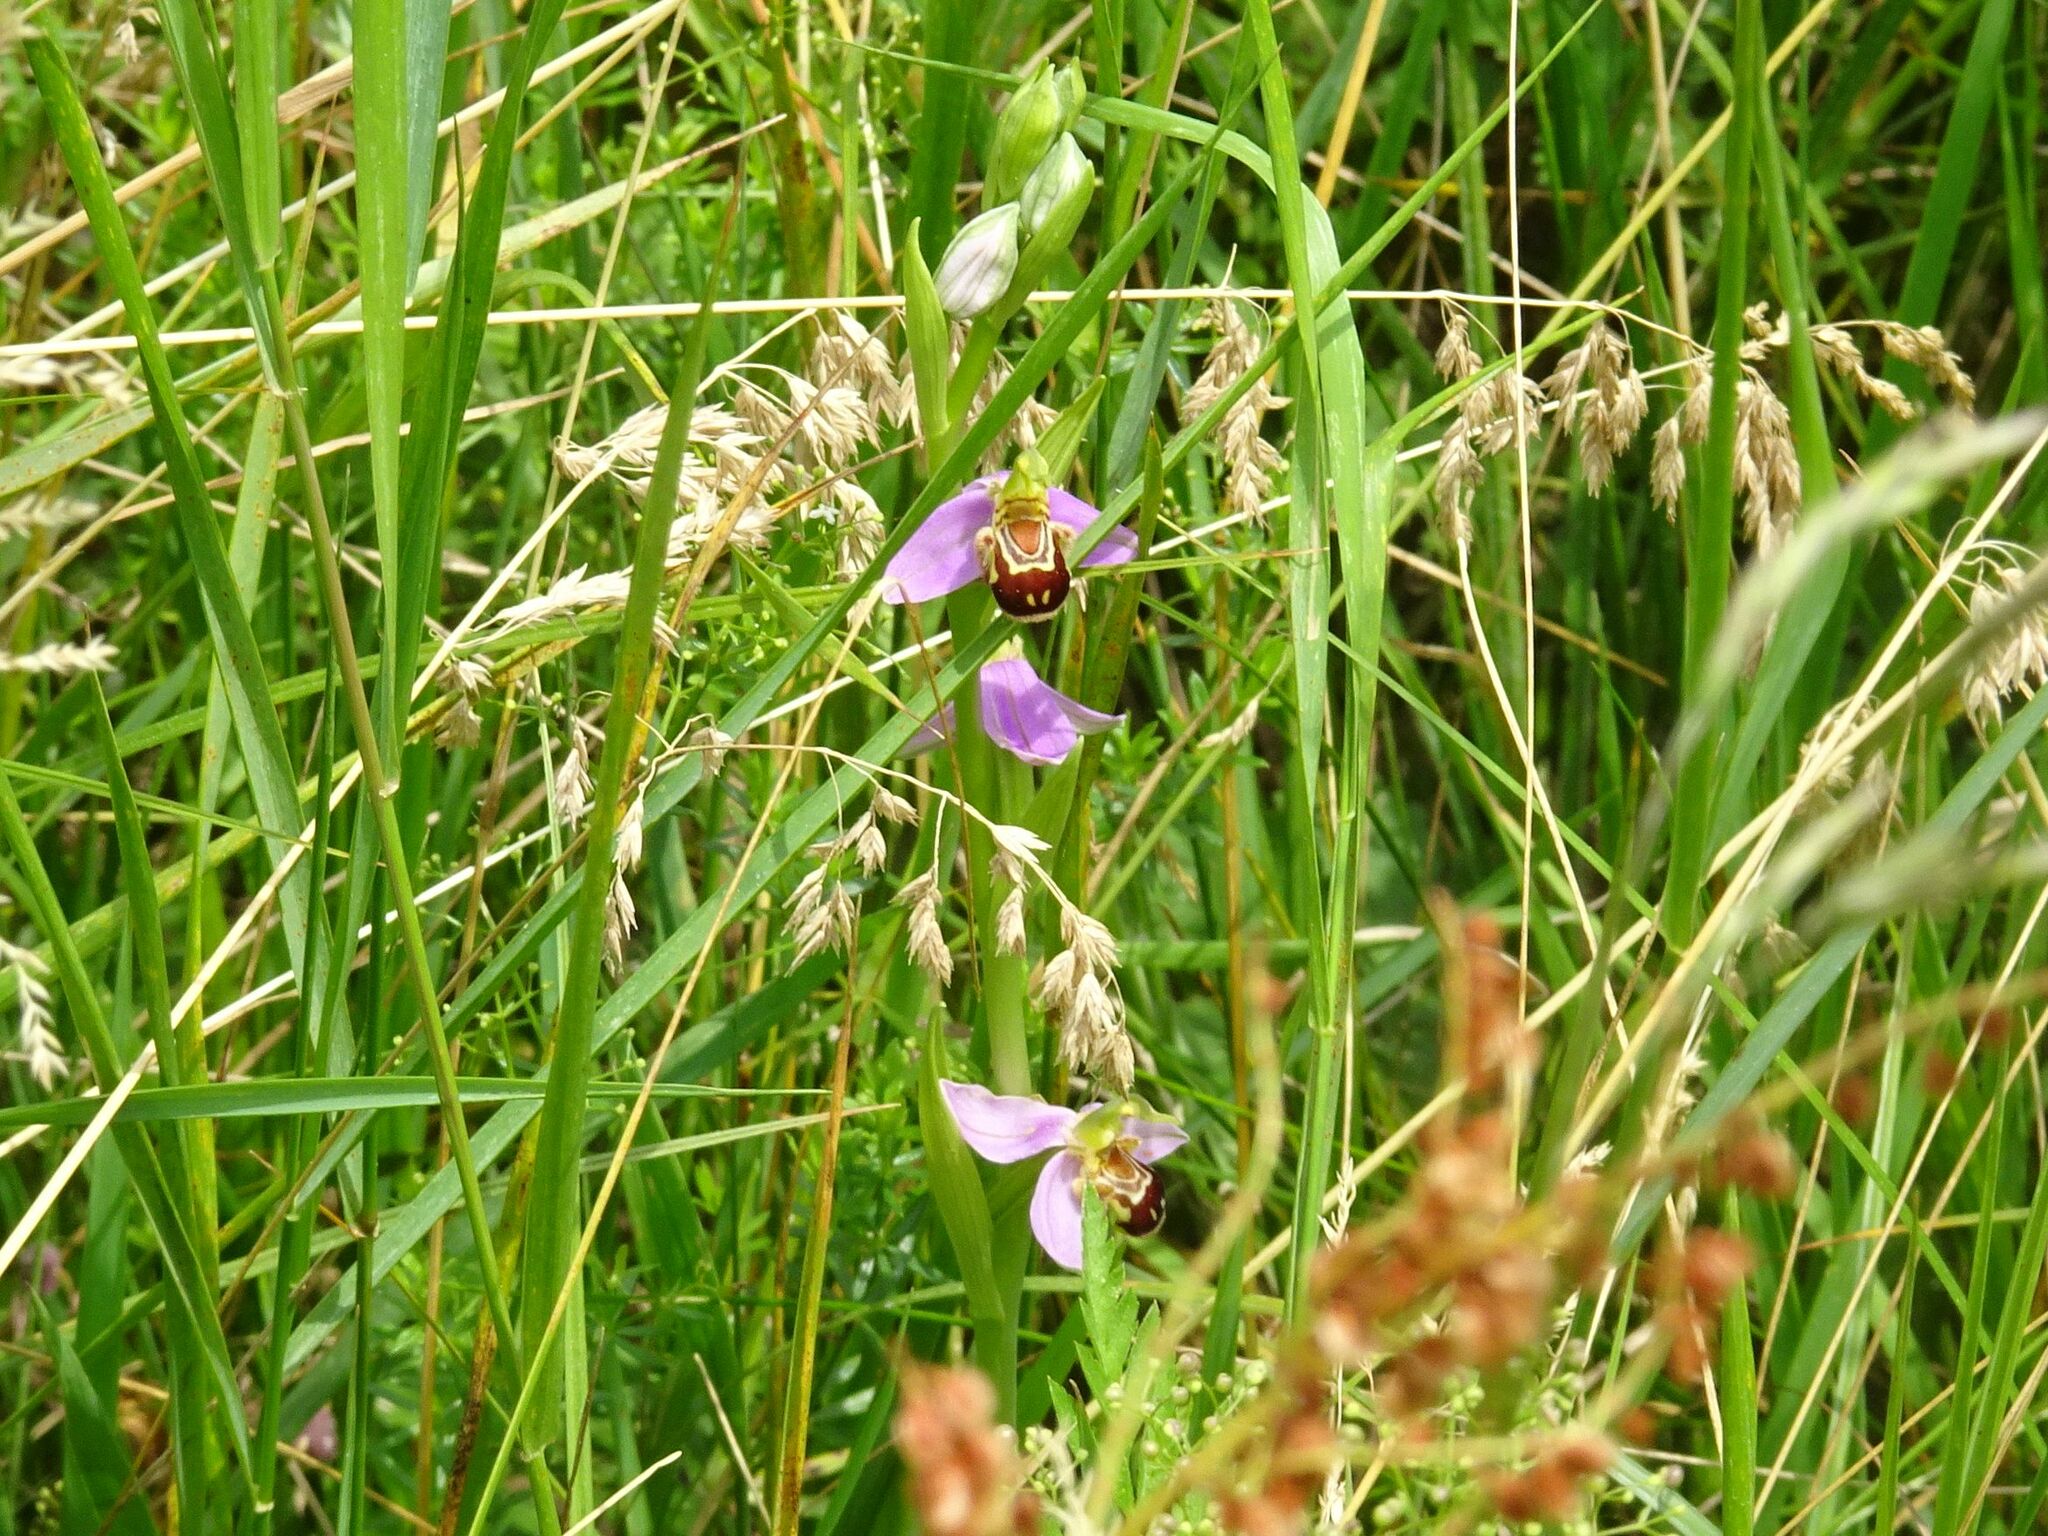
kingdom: Plantae
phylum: Tracheophyta
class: Liliopsida
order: Asparagales
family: Orchidaceae
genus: Ophrys
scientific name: Ophrys apifera
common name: Bee orchid
